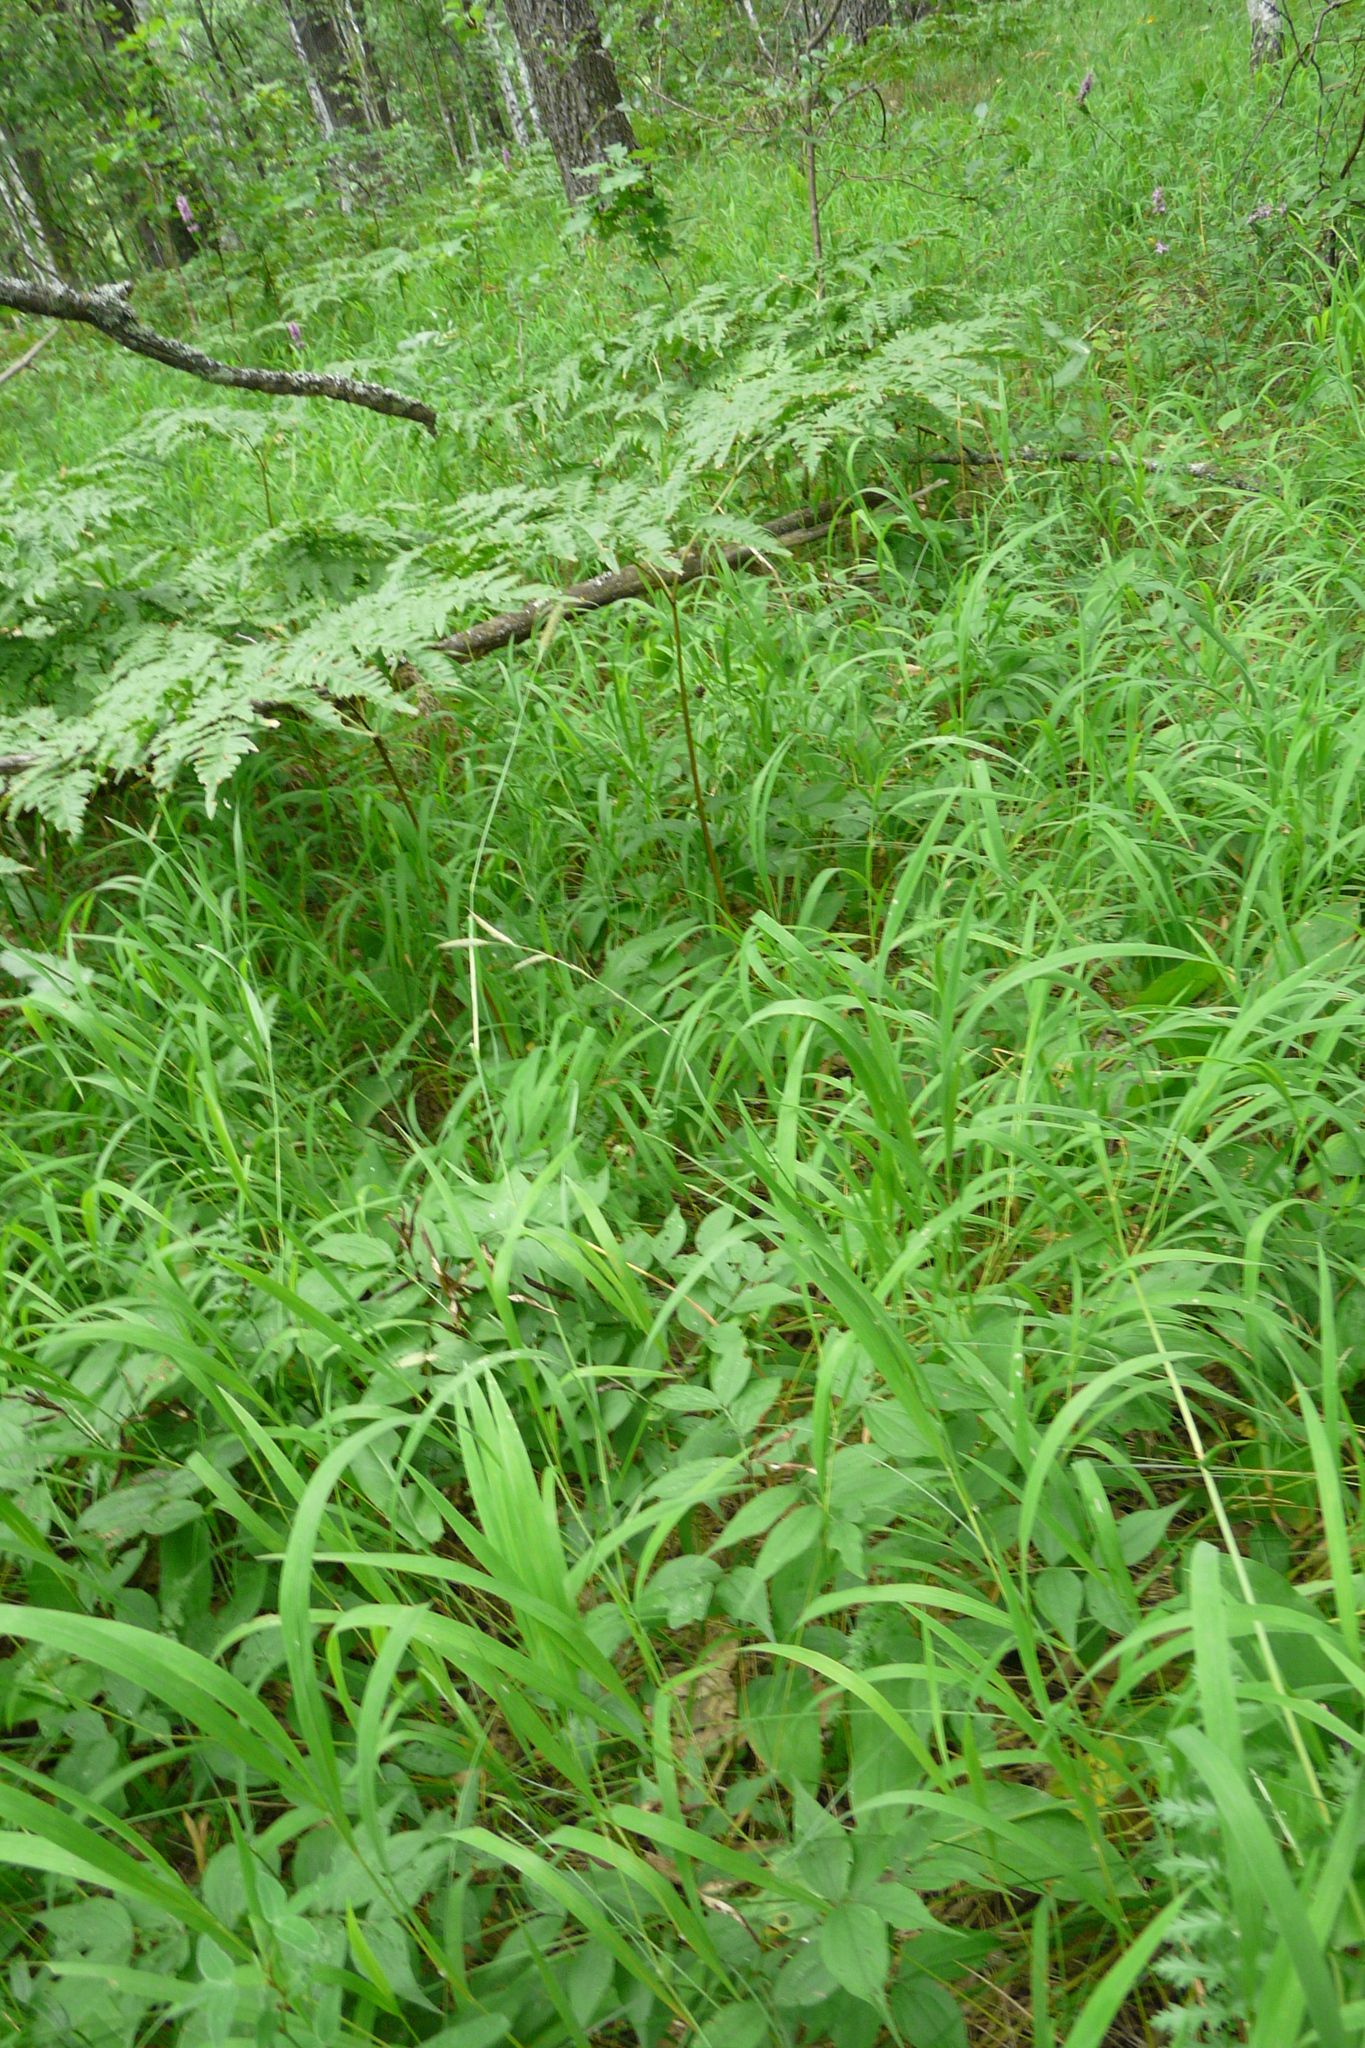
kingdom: Plantae
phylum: Tracheophyta
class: Liliopsida
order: Poales
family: Poaceae
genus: Brachypodium
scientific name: Brachypodium pinnatum
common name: Tor grass
